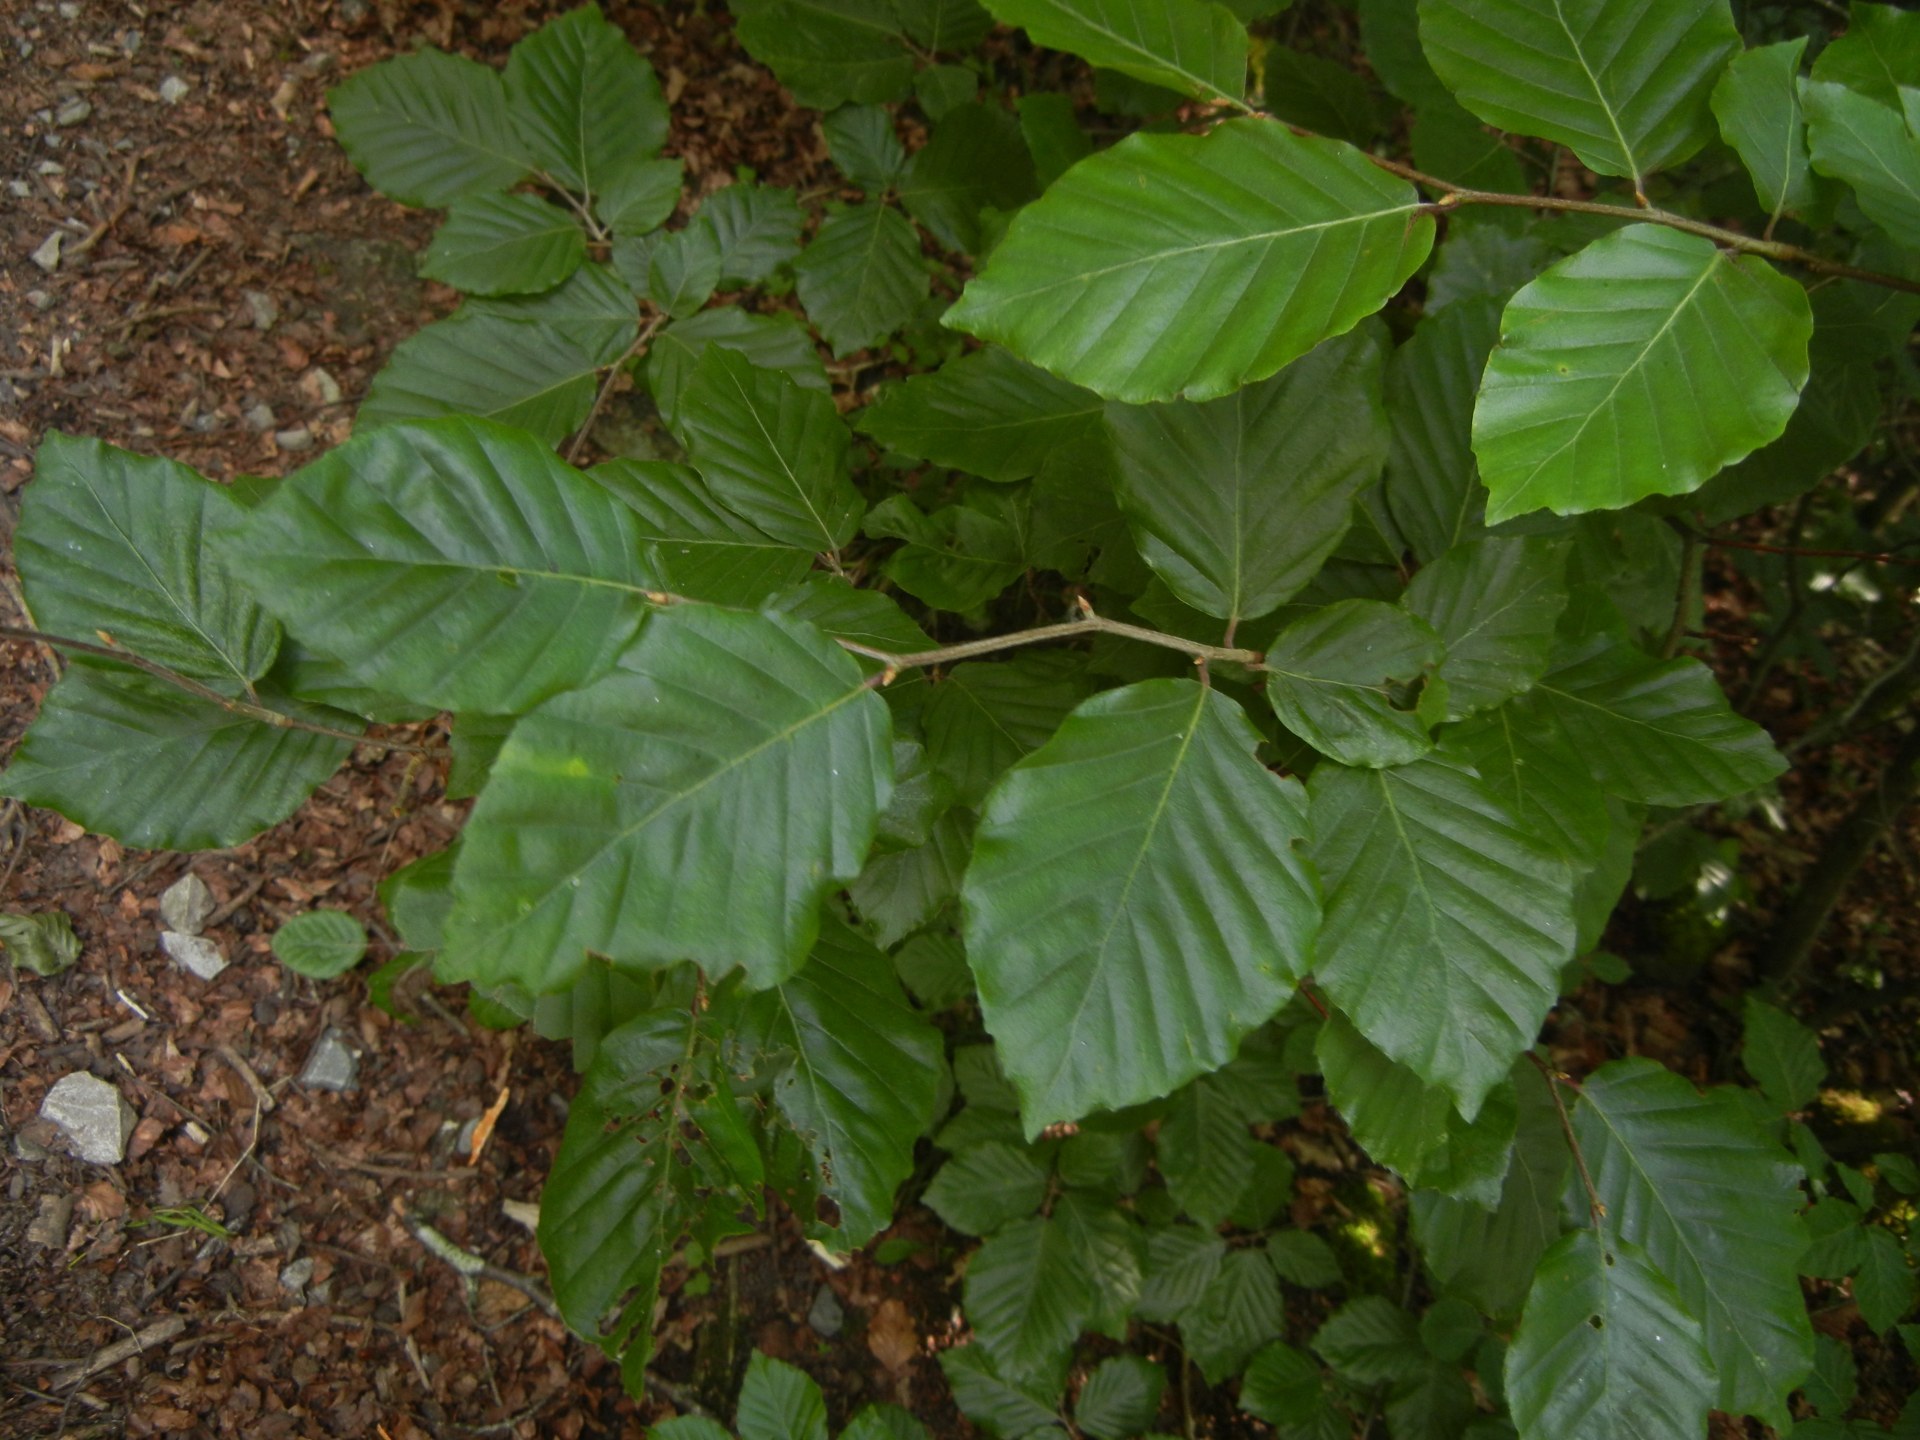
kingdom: Plantae
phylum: Tracheophyta
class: Magnoliopsida
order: Fagales
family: Fagaceae
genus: Fagus
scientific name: Fagus sylvatica
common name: Beech
